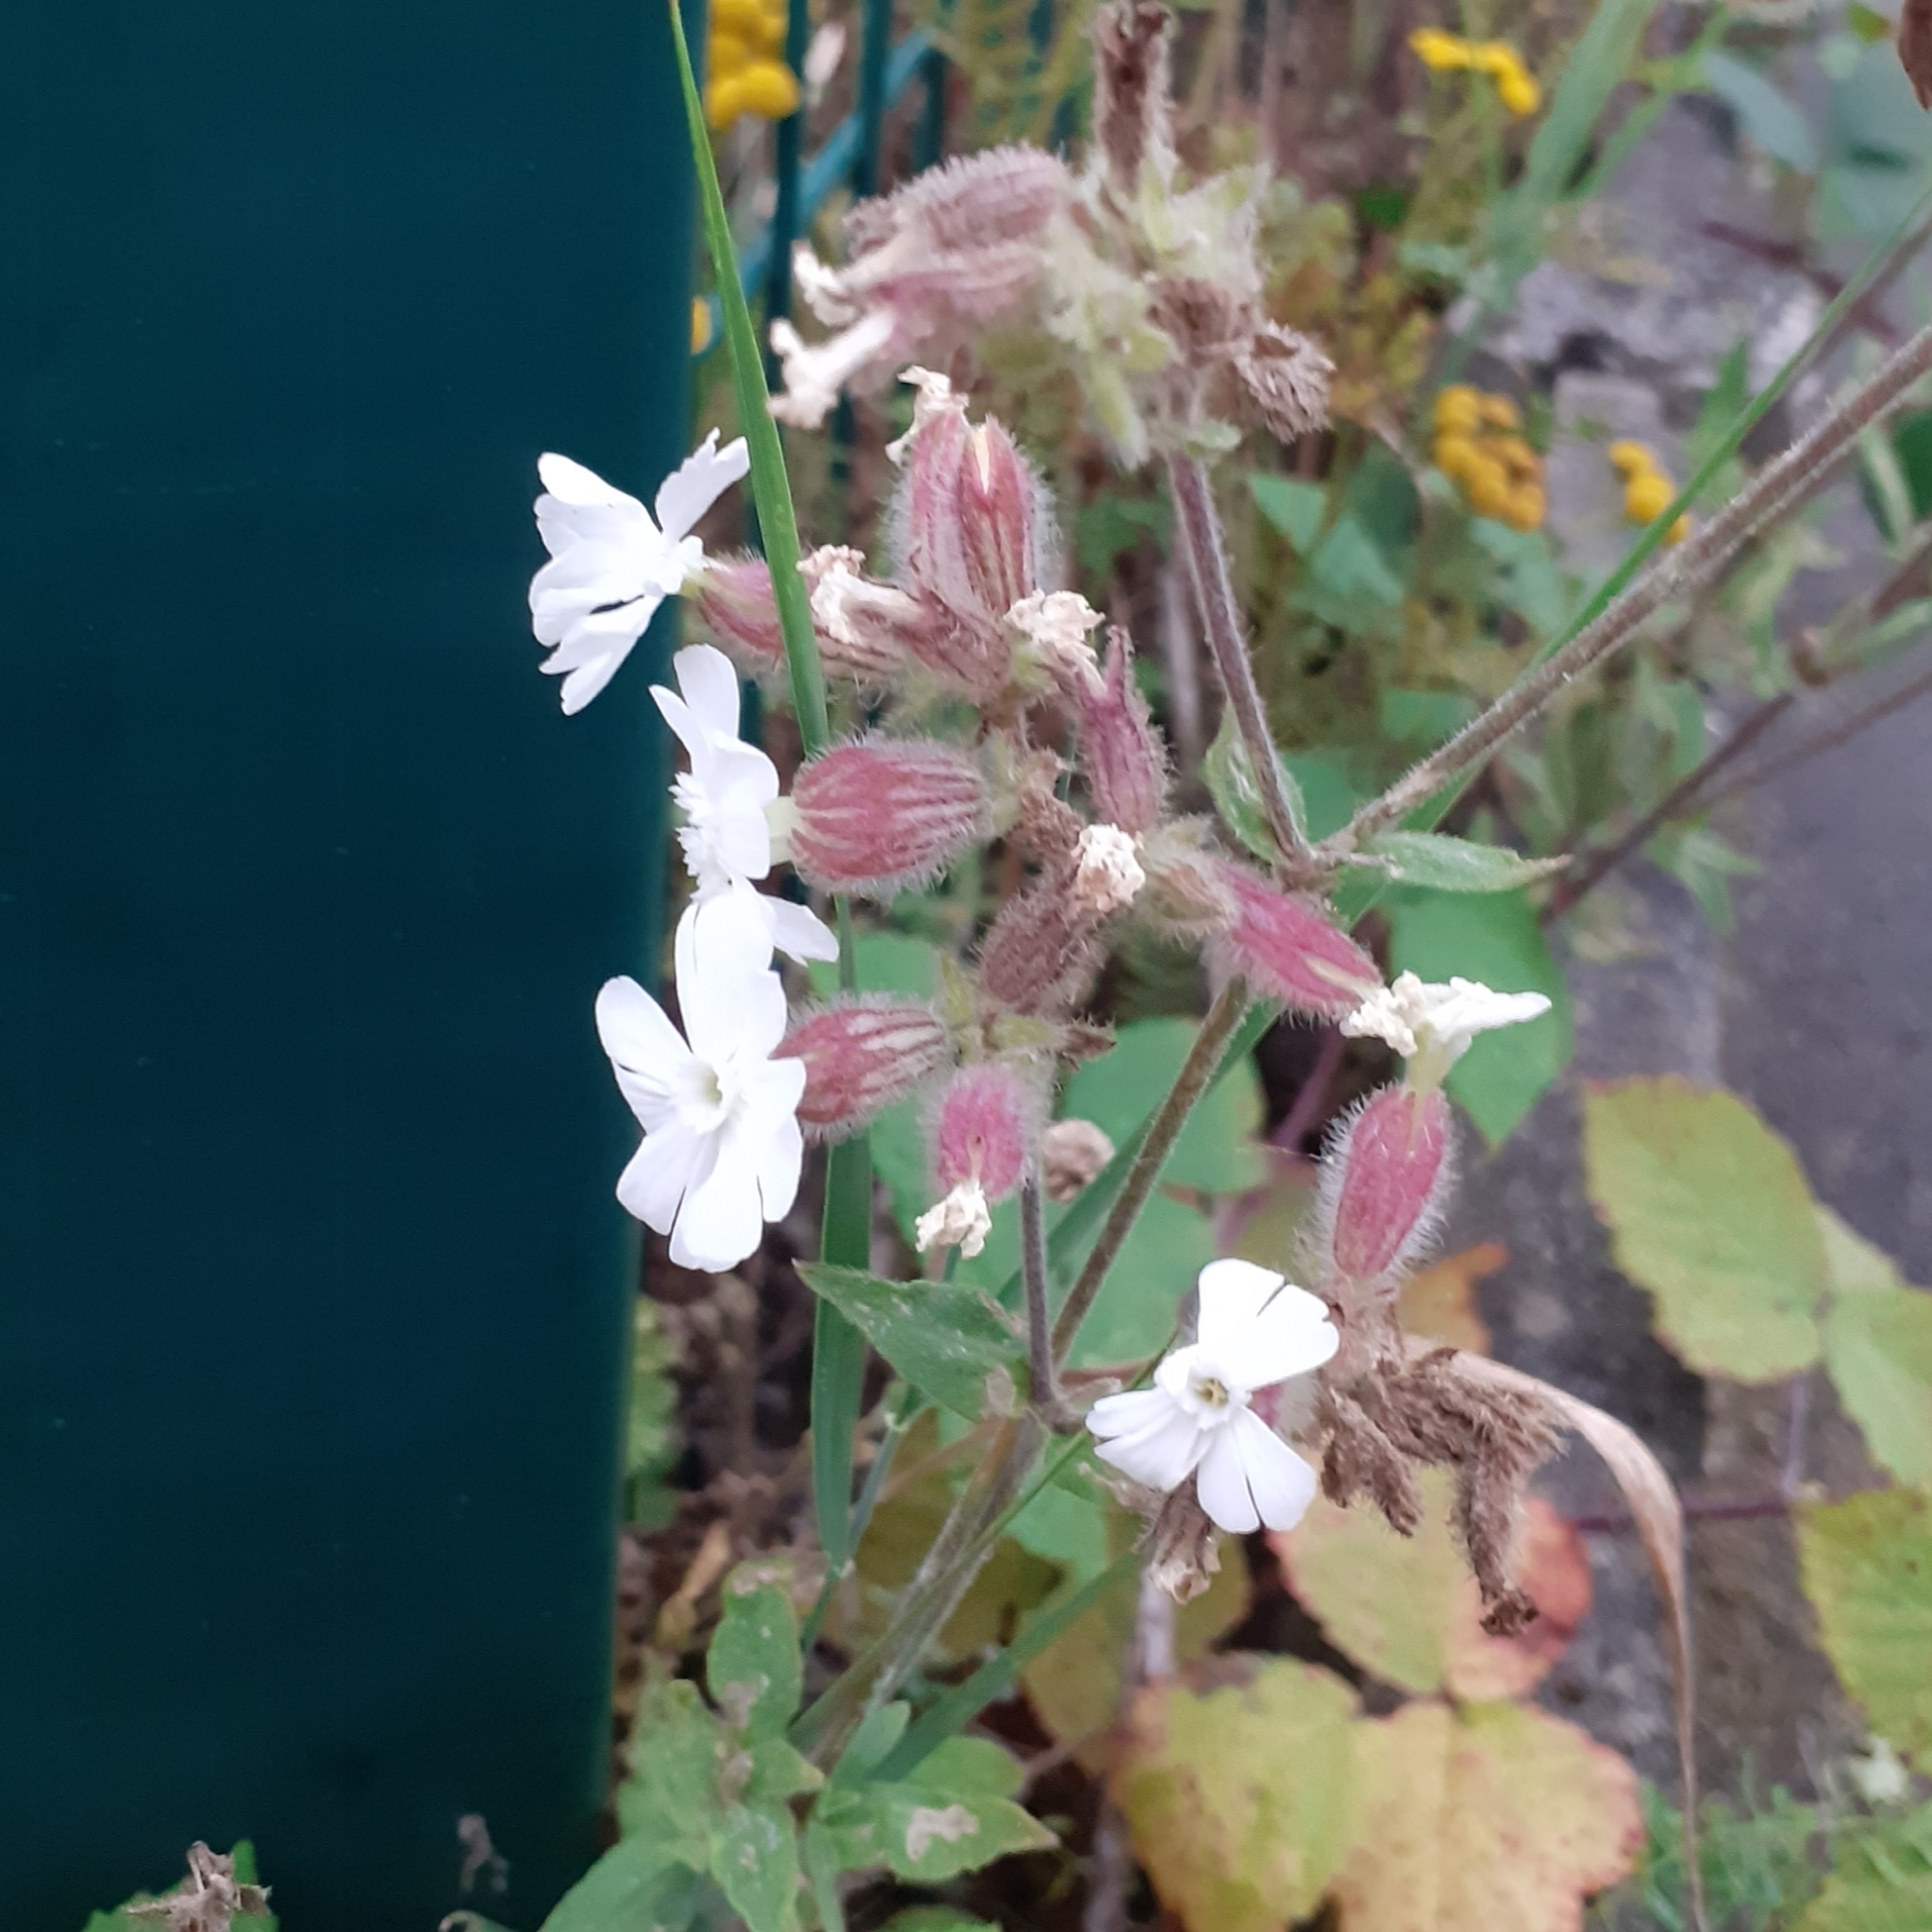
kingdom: Plantae
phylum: Tracheophyta
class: Magnoliopsida
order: Caryophyllales
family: Caryophyllaceae
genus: Silene
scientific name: Silene latifolia
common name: White campion
